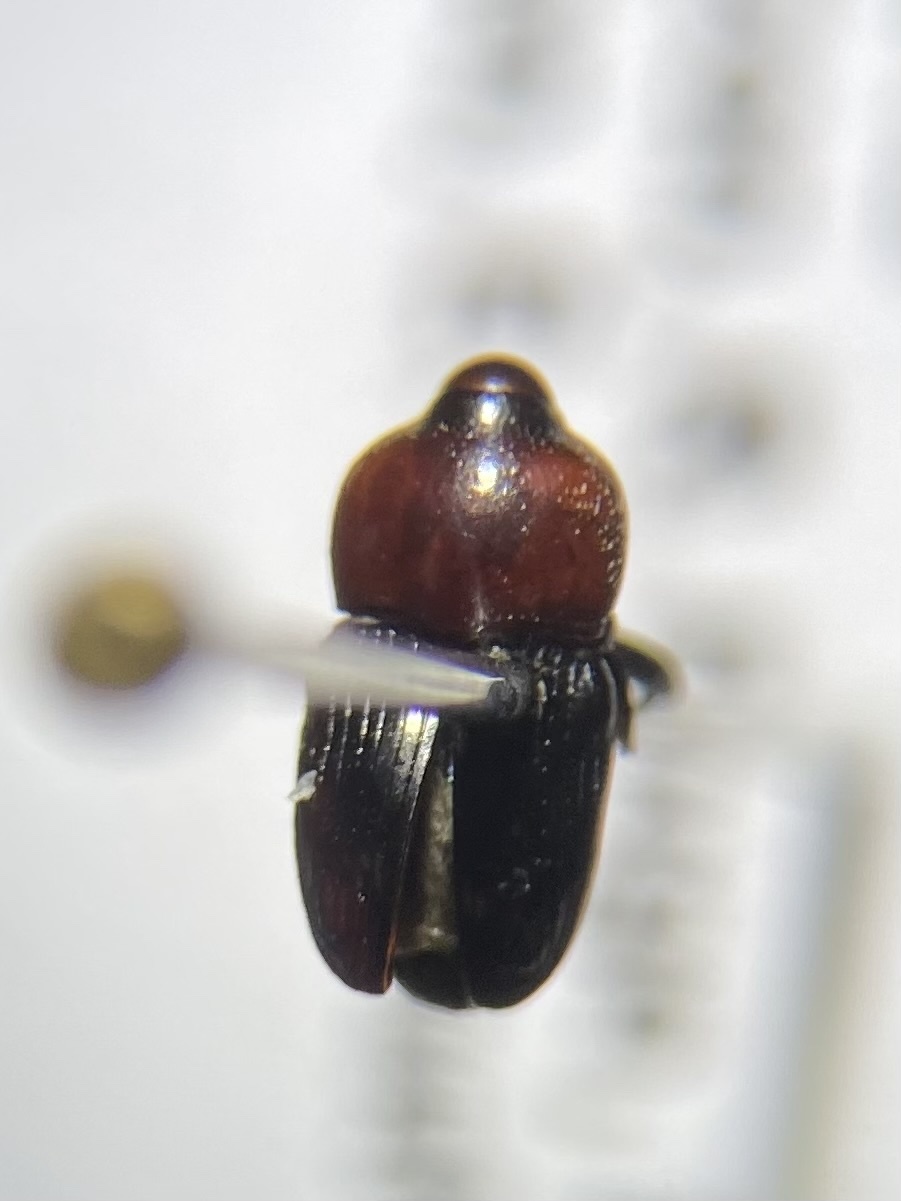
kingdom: Animalia
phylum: Arthropoda
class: Insecta
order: Coleoptera
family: Curculionidae
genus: Madarellus
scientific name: Madarellus undulatus
